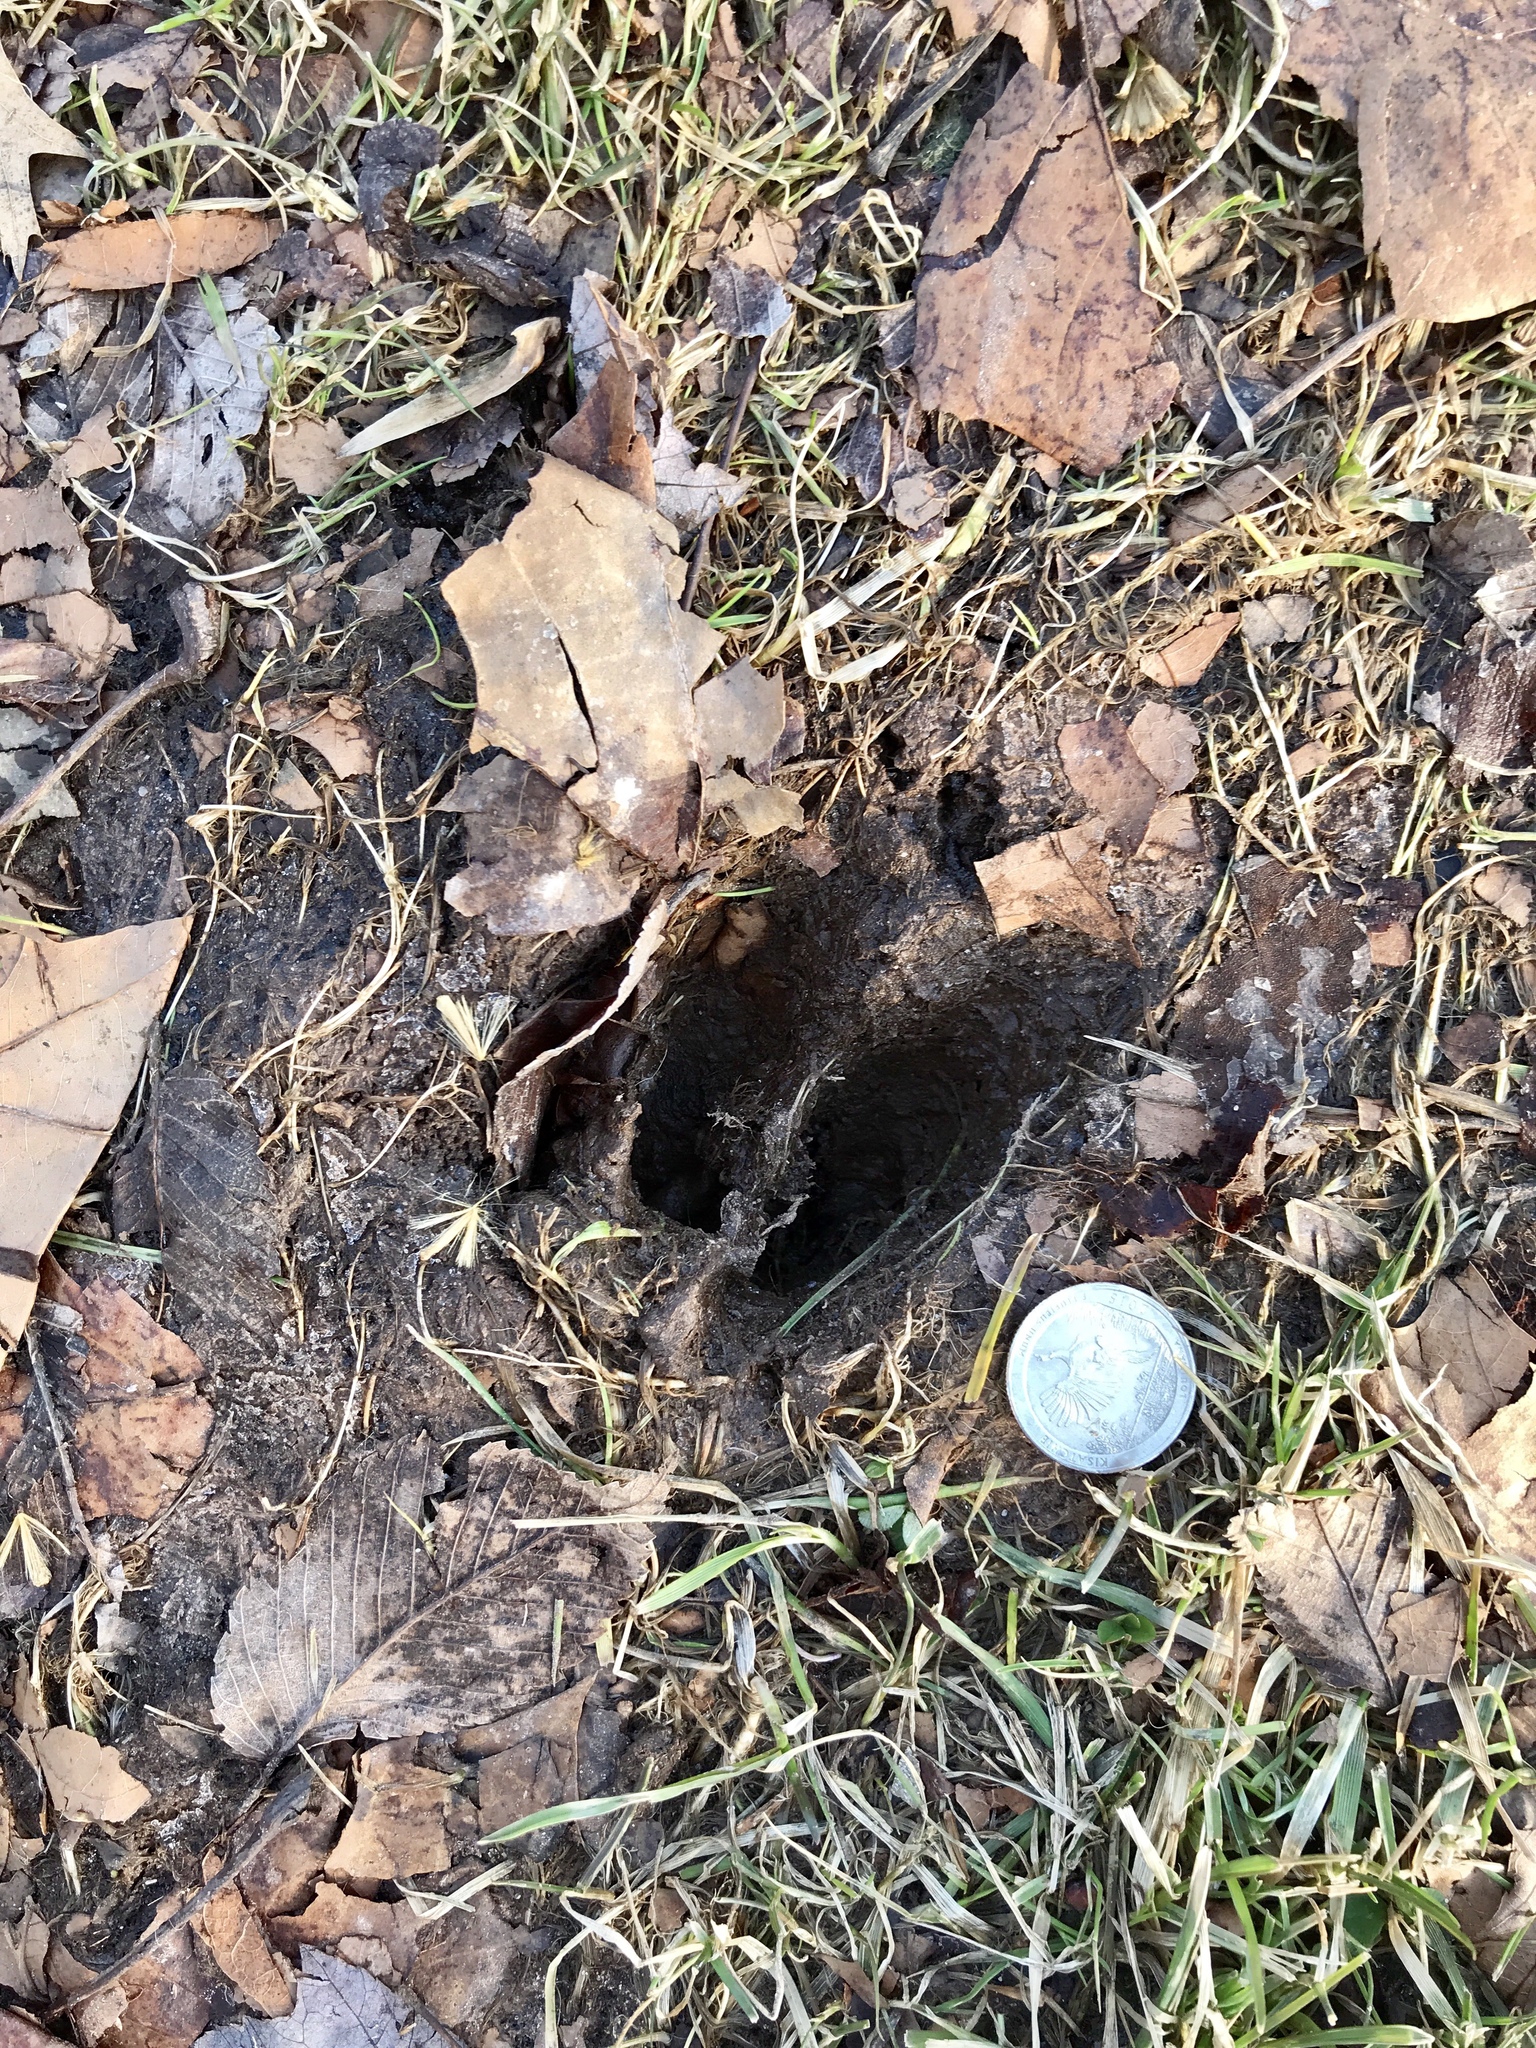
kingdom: Animalia
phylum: Chordata
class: Mammalia
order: Artiodactyla
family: Cervidae
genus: Odocoileus
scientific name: Odocoileus virginianus
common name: White-tailed deer
